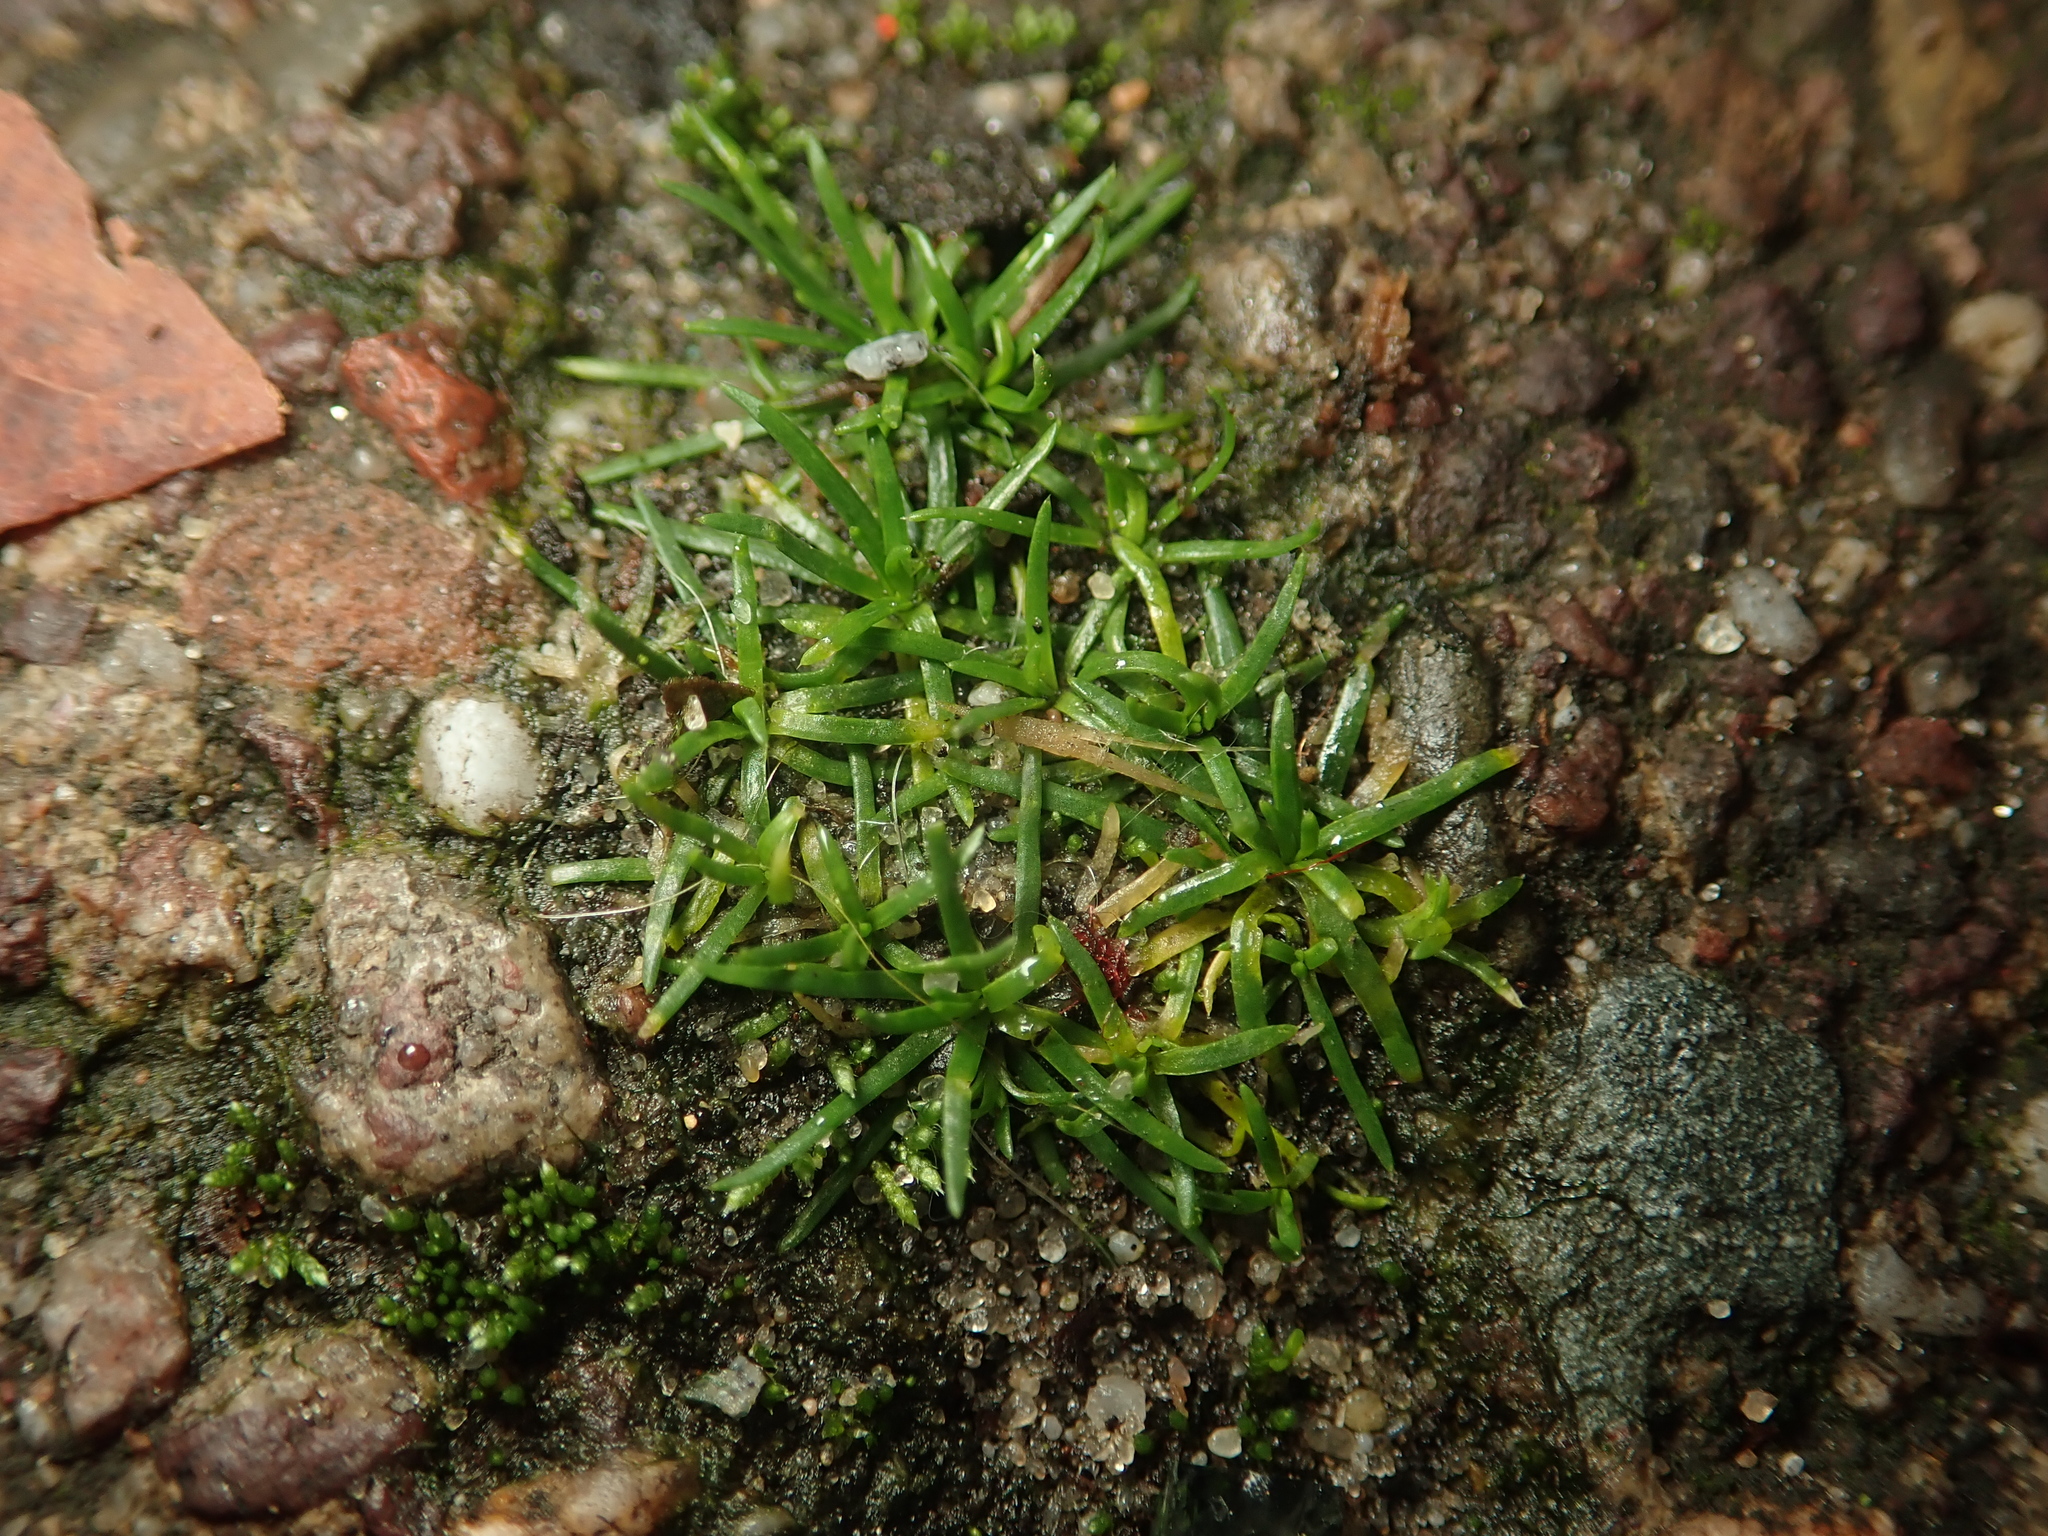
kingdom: Plantae
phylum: Tracheophyta
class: Magnoliopsida
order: Caryophyllales
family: Caryophyllaceae
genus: Sagina
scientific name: Sagina procumbens
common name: Procumbent pearlwort
